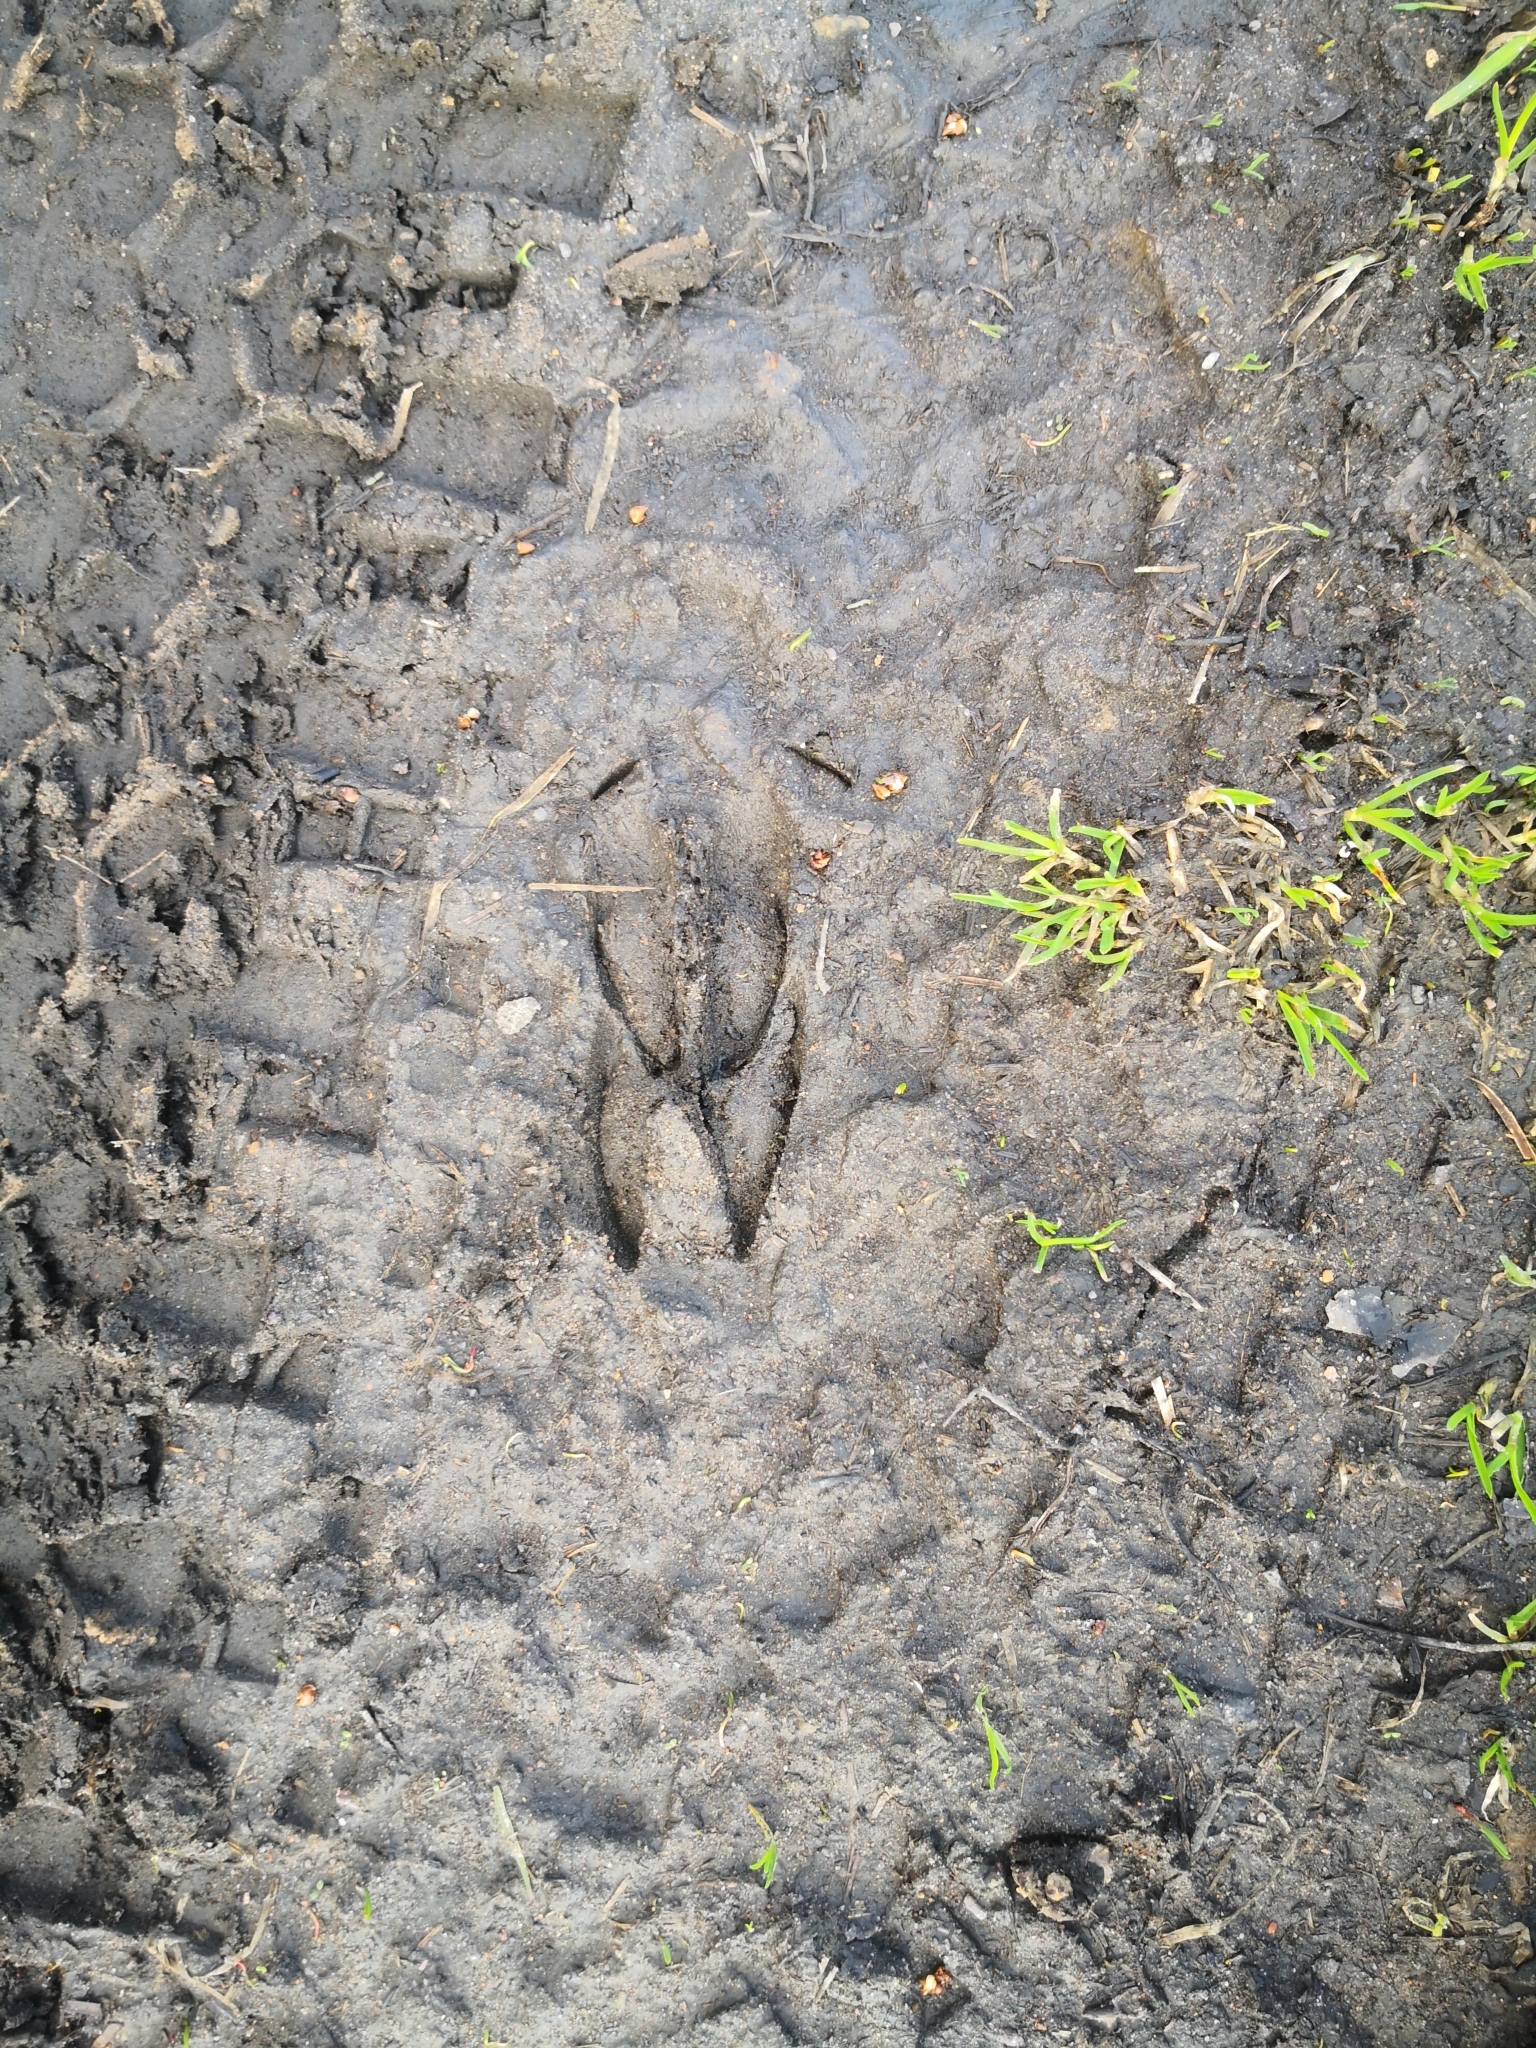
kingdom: Animalia
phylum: Chordata
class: Mammalia
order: Artiodactyla
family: Cervidae
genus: Capreolus
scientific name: Capreolus capreolus
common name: Western roe deer
